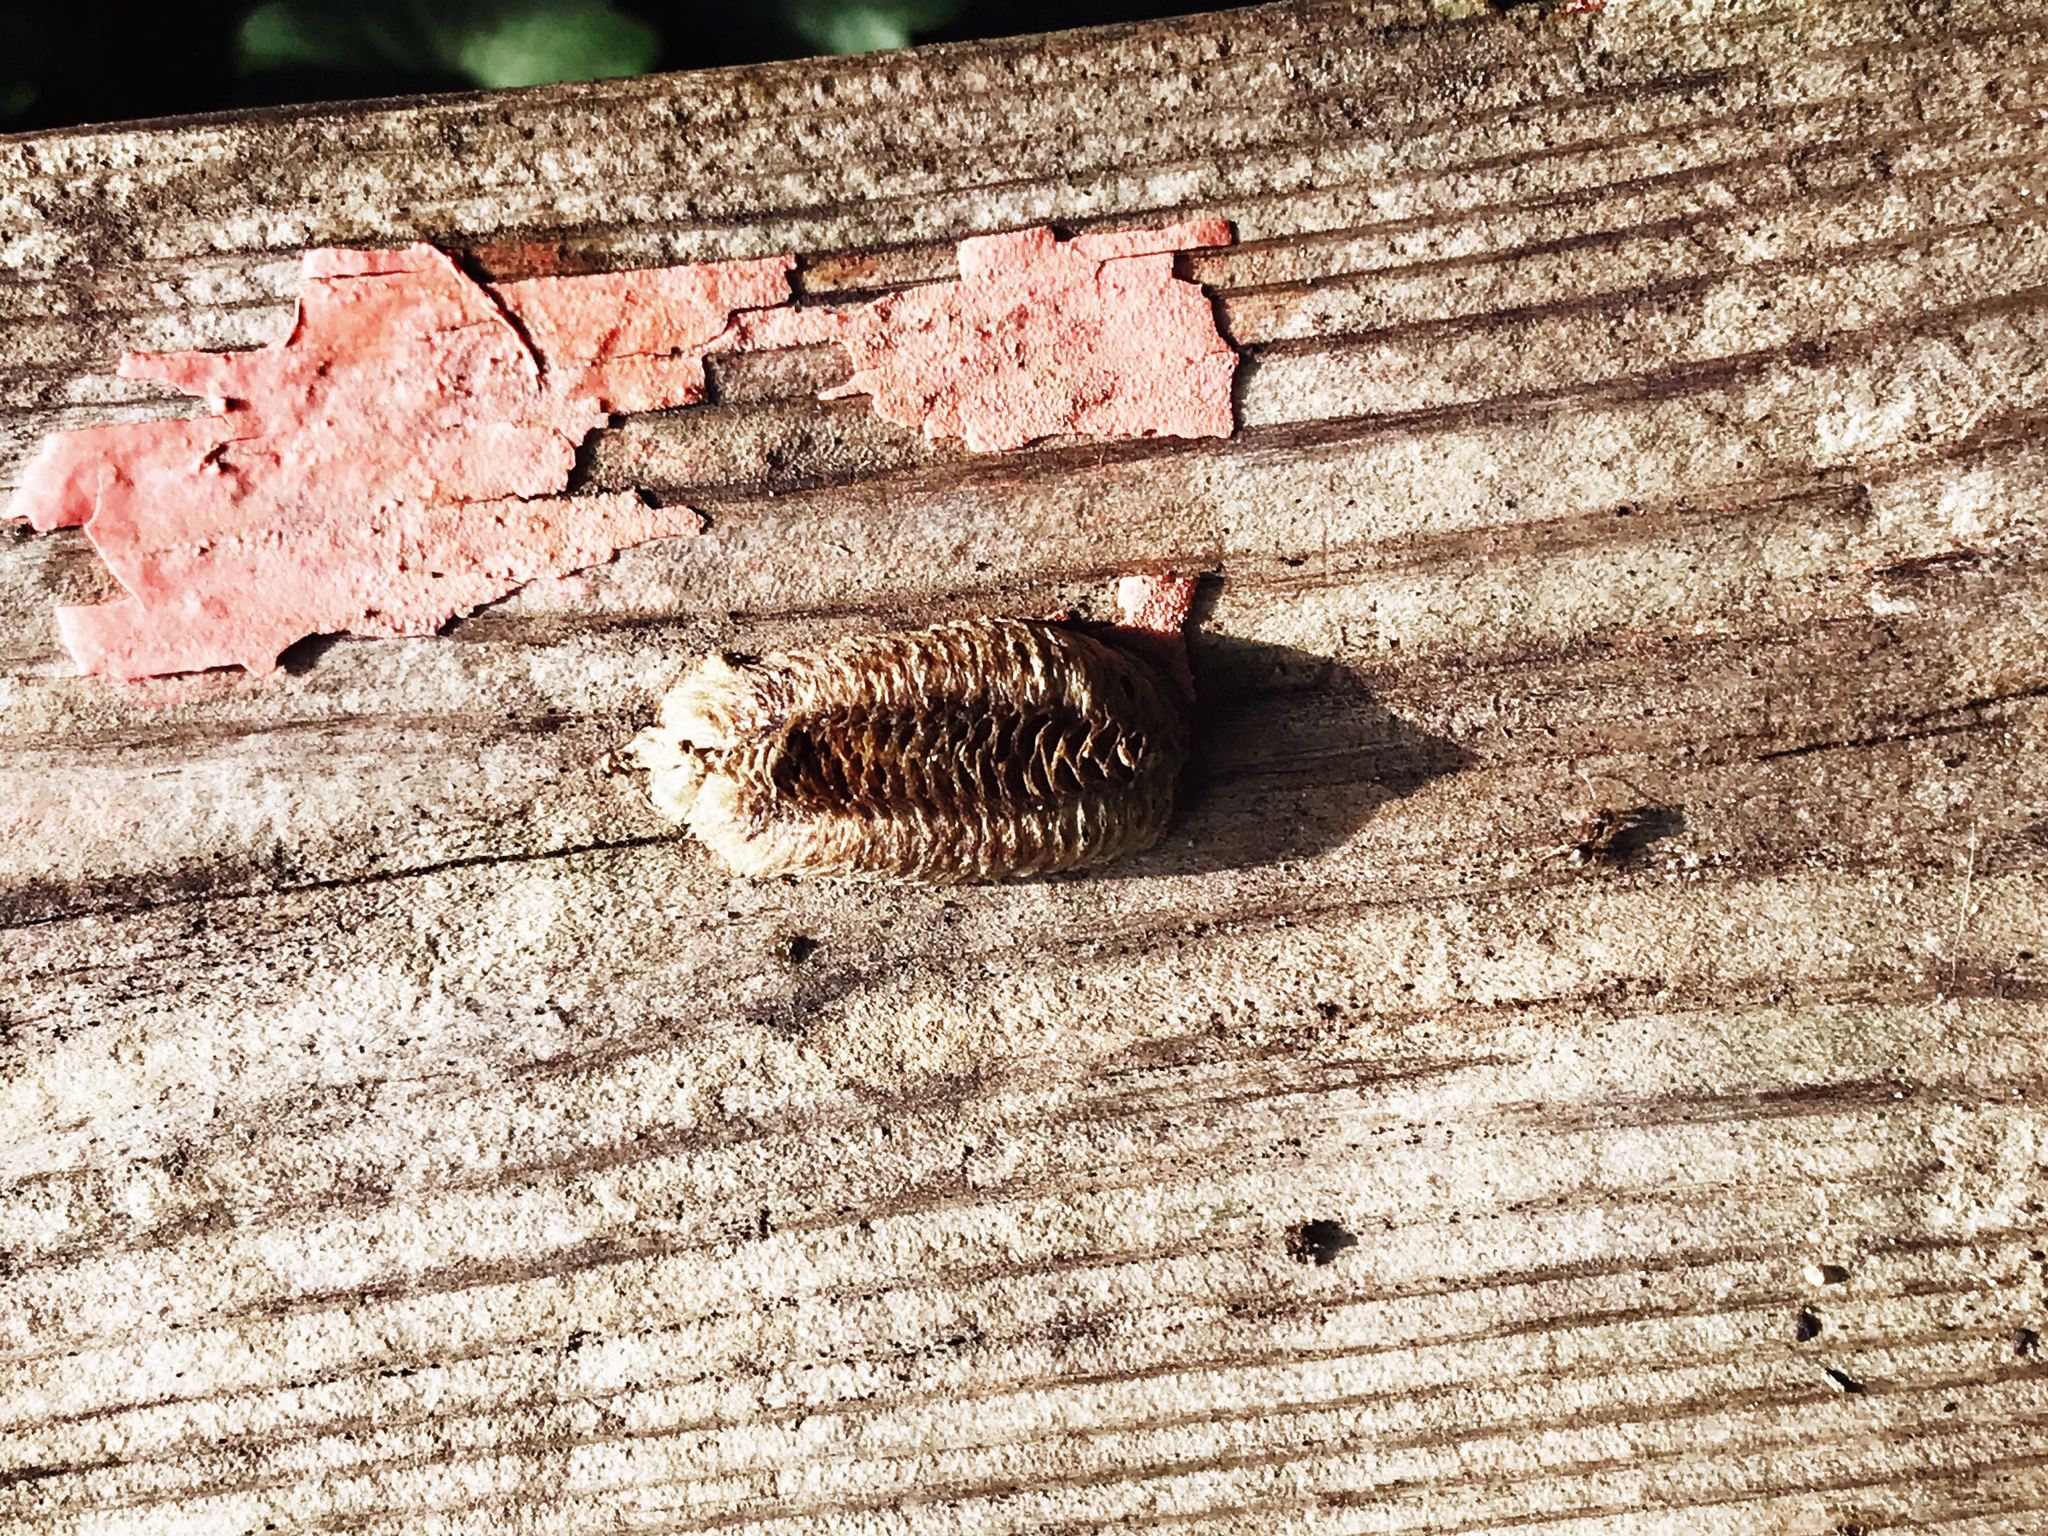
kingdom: Animalia
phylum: Arthropoda
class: Insecta
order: Mantodea
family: Mantidae
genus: Stagmomantis
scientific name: Stagmomantis carolina
